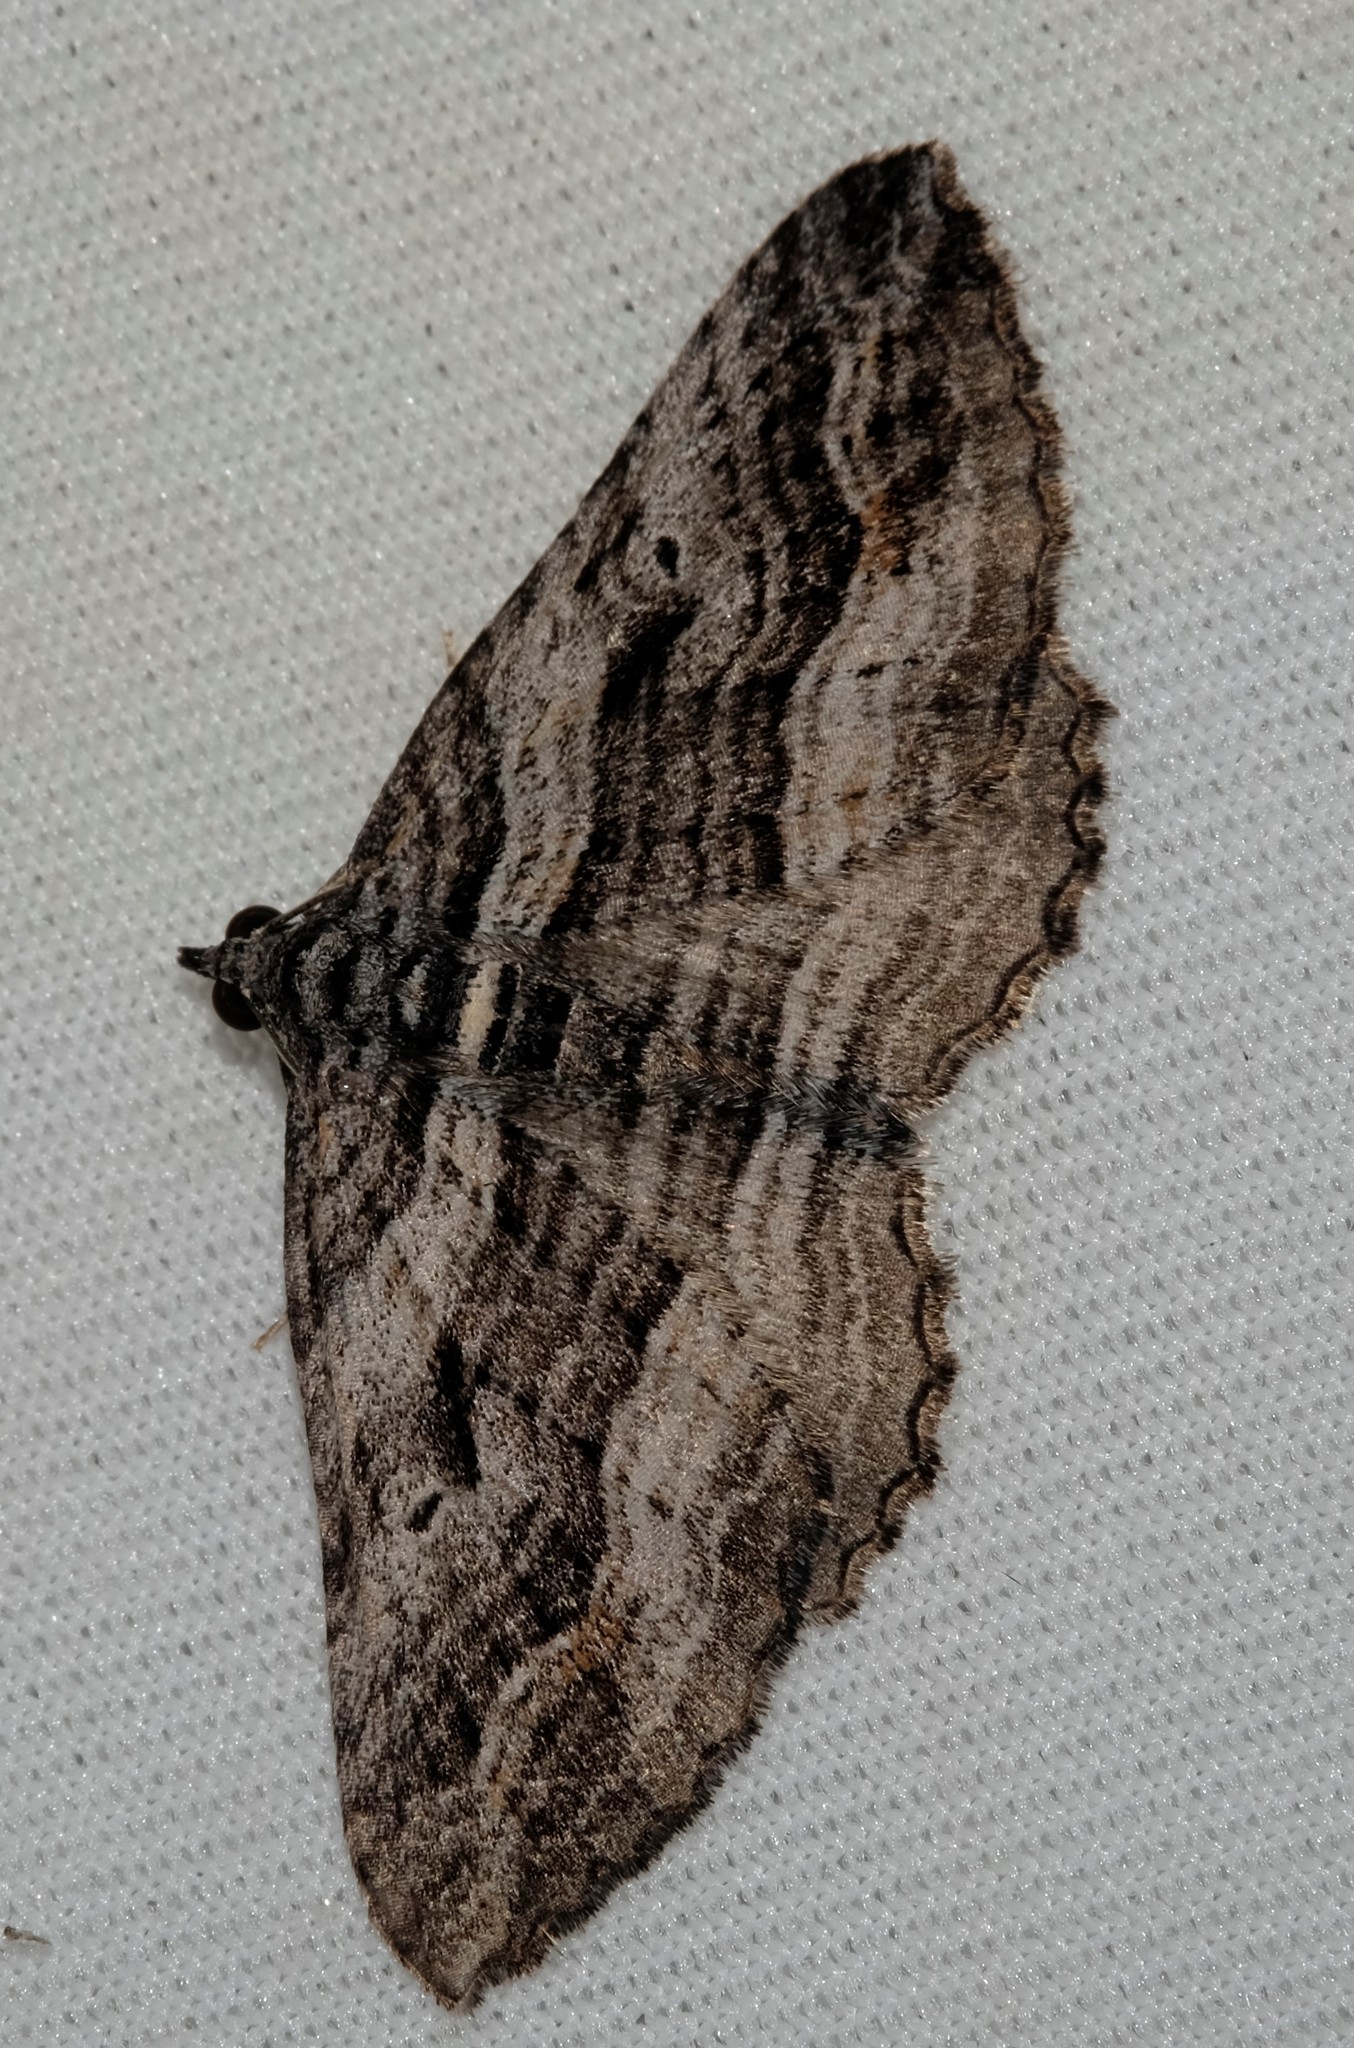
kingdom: Animalia
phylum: Arthropoda
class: Insecta
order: Lepidoptera
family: Geometridae
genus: Chrysolarentia
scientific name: Chrysolarentia severata
